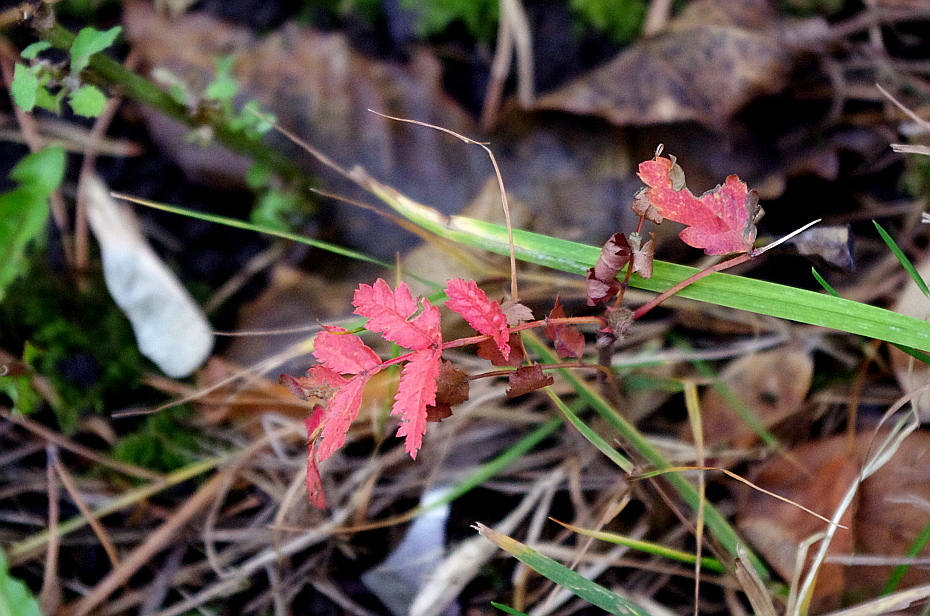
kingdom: Plantae
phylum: Tracheophyta
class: Magnoliopsida
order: Rosales
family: Rosaceae
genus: Sorbus
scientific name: Sorbus aucuparia
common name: Rowan
